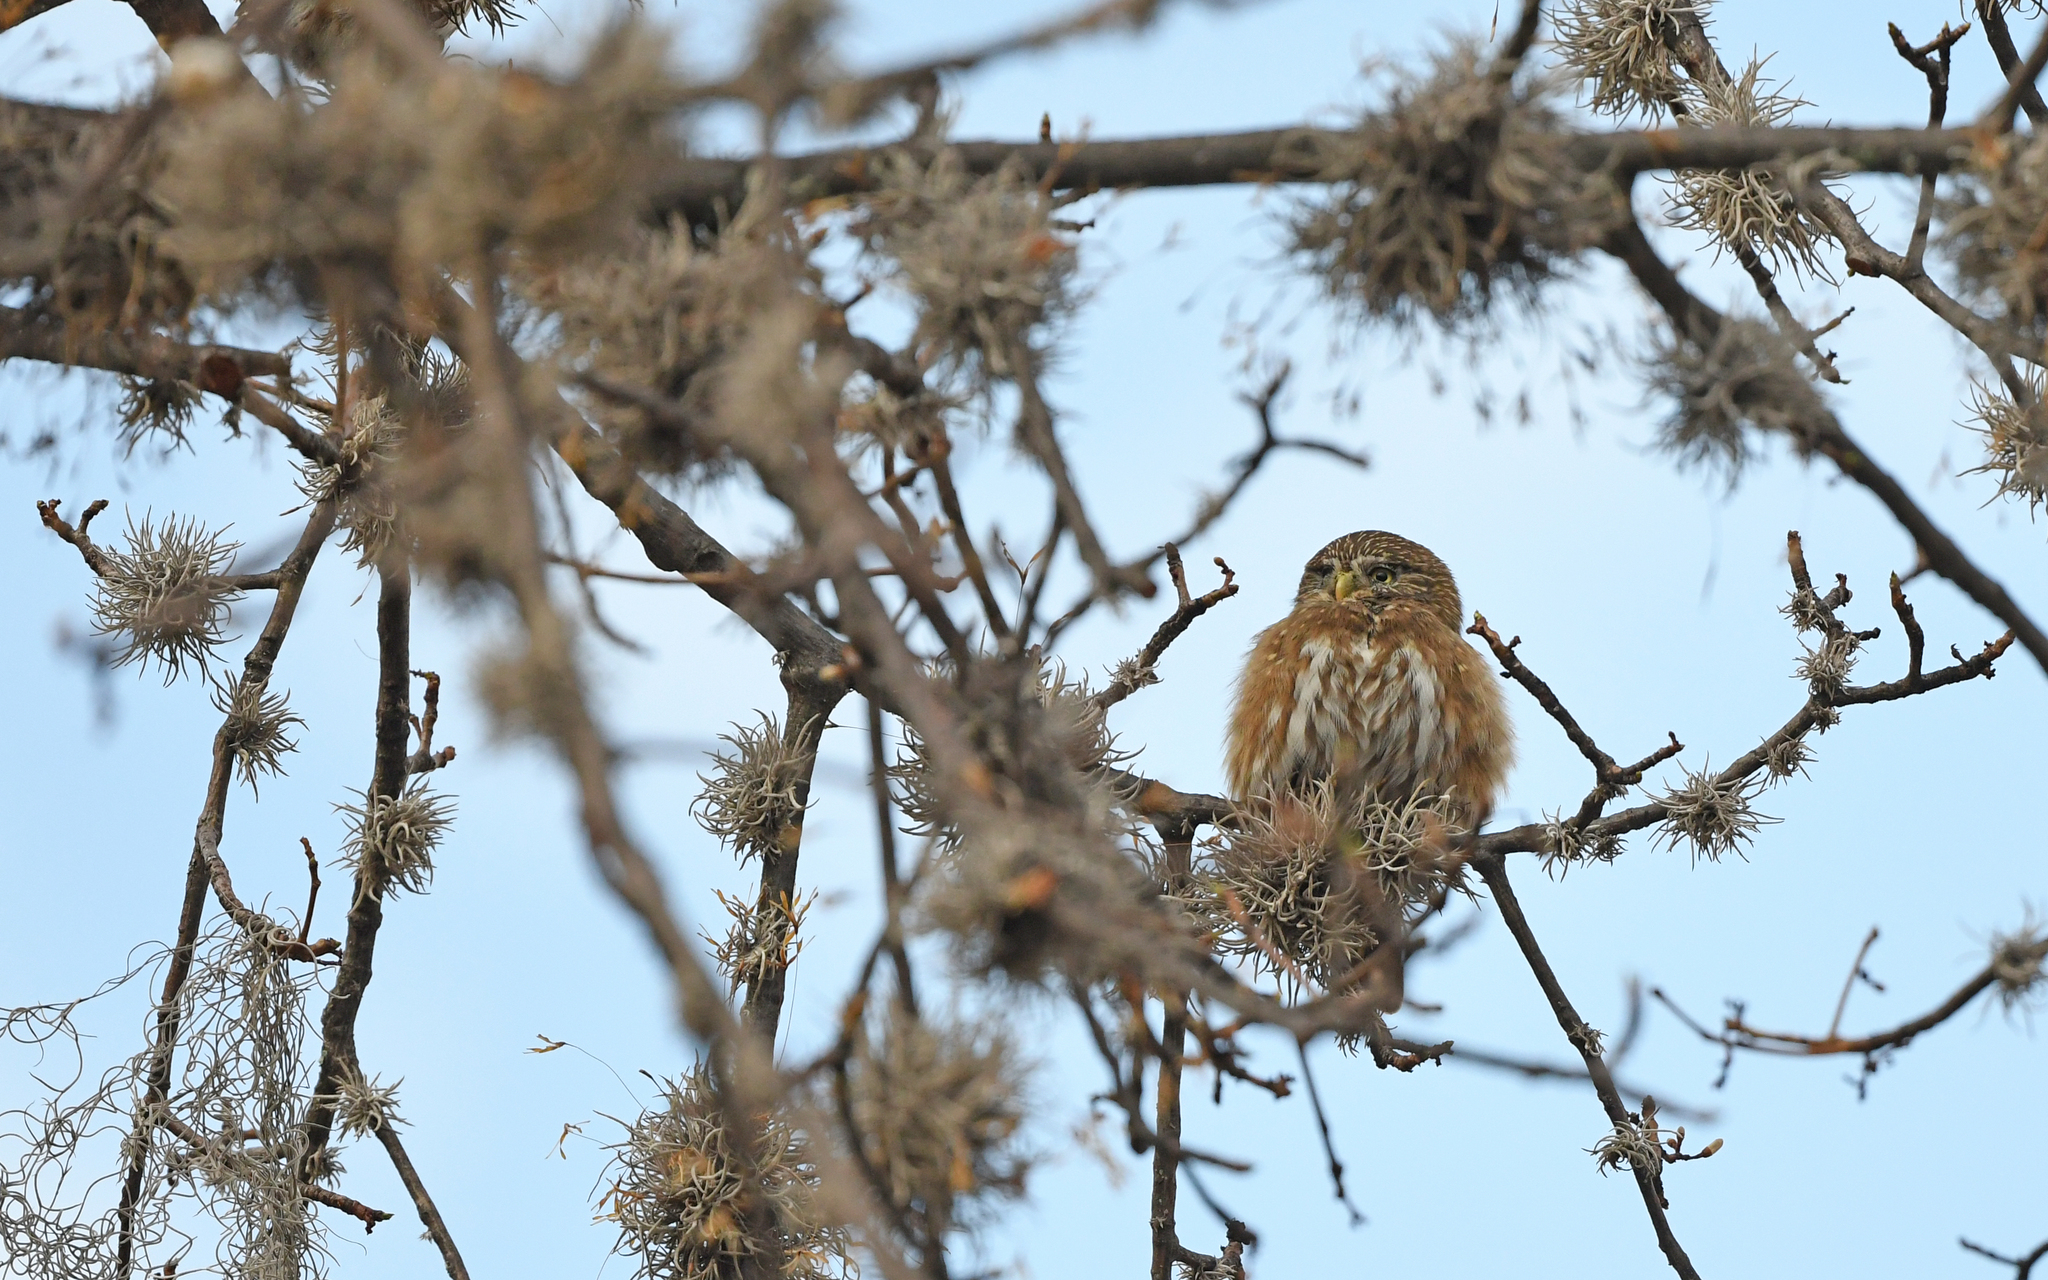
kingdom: Animalia
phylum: Chordata
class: Aves
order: Strigiformes
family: Strigidae
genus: Glaucidium
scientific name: Glaucidium peruanum
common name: Pacific pygmy owl
